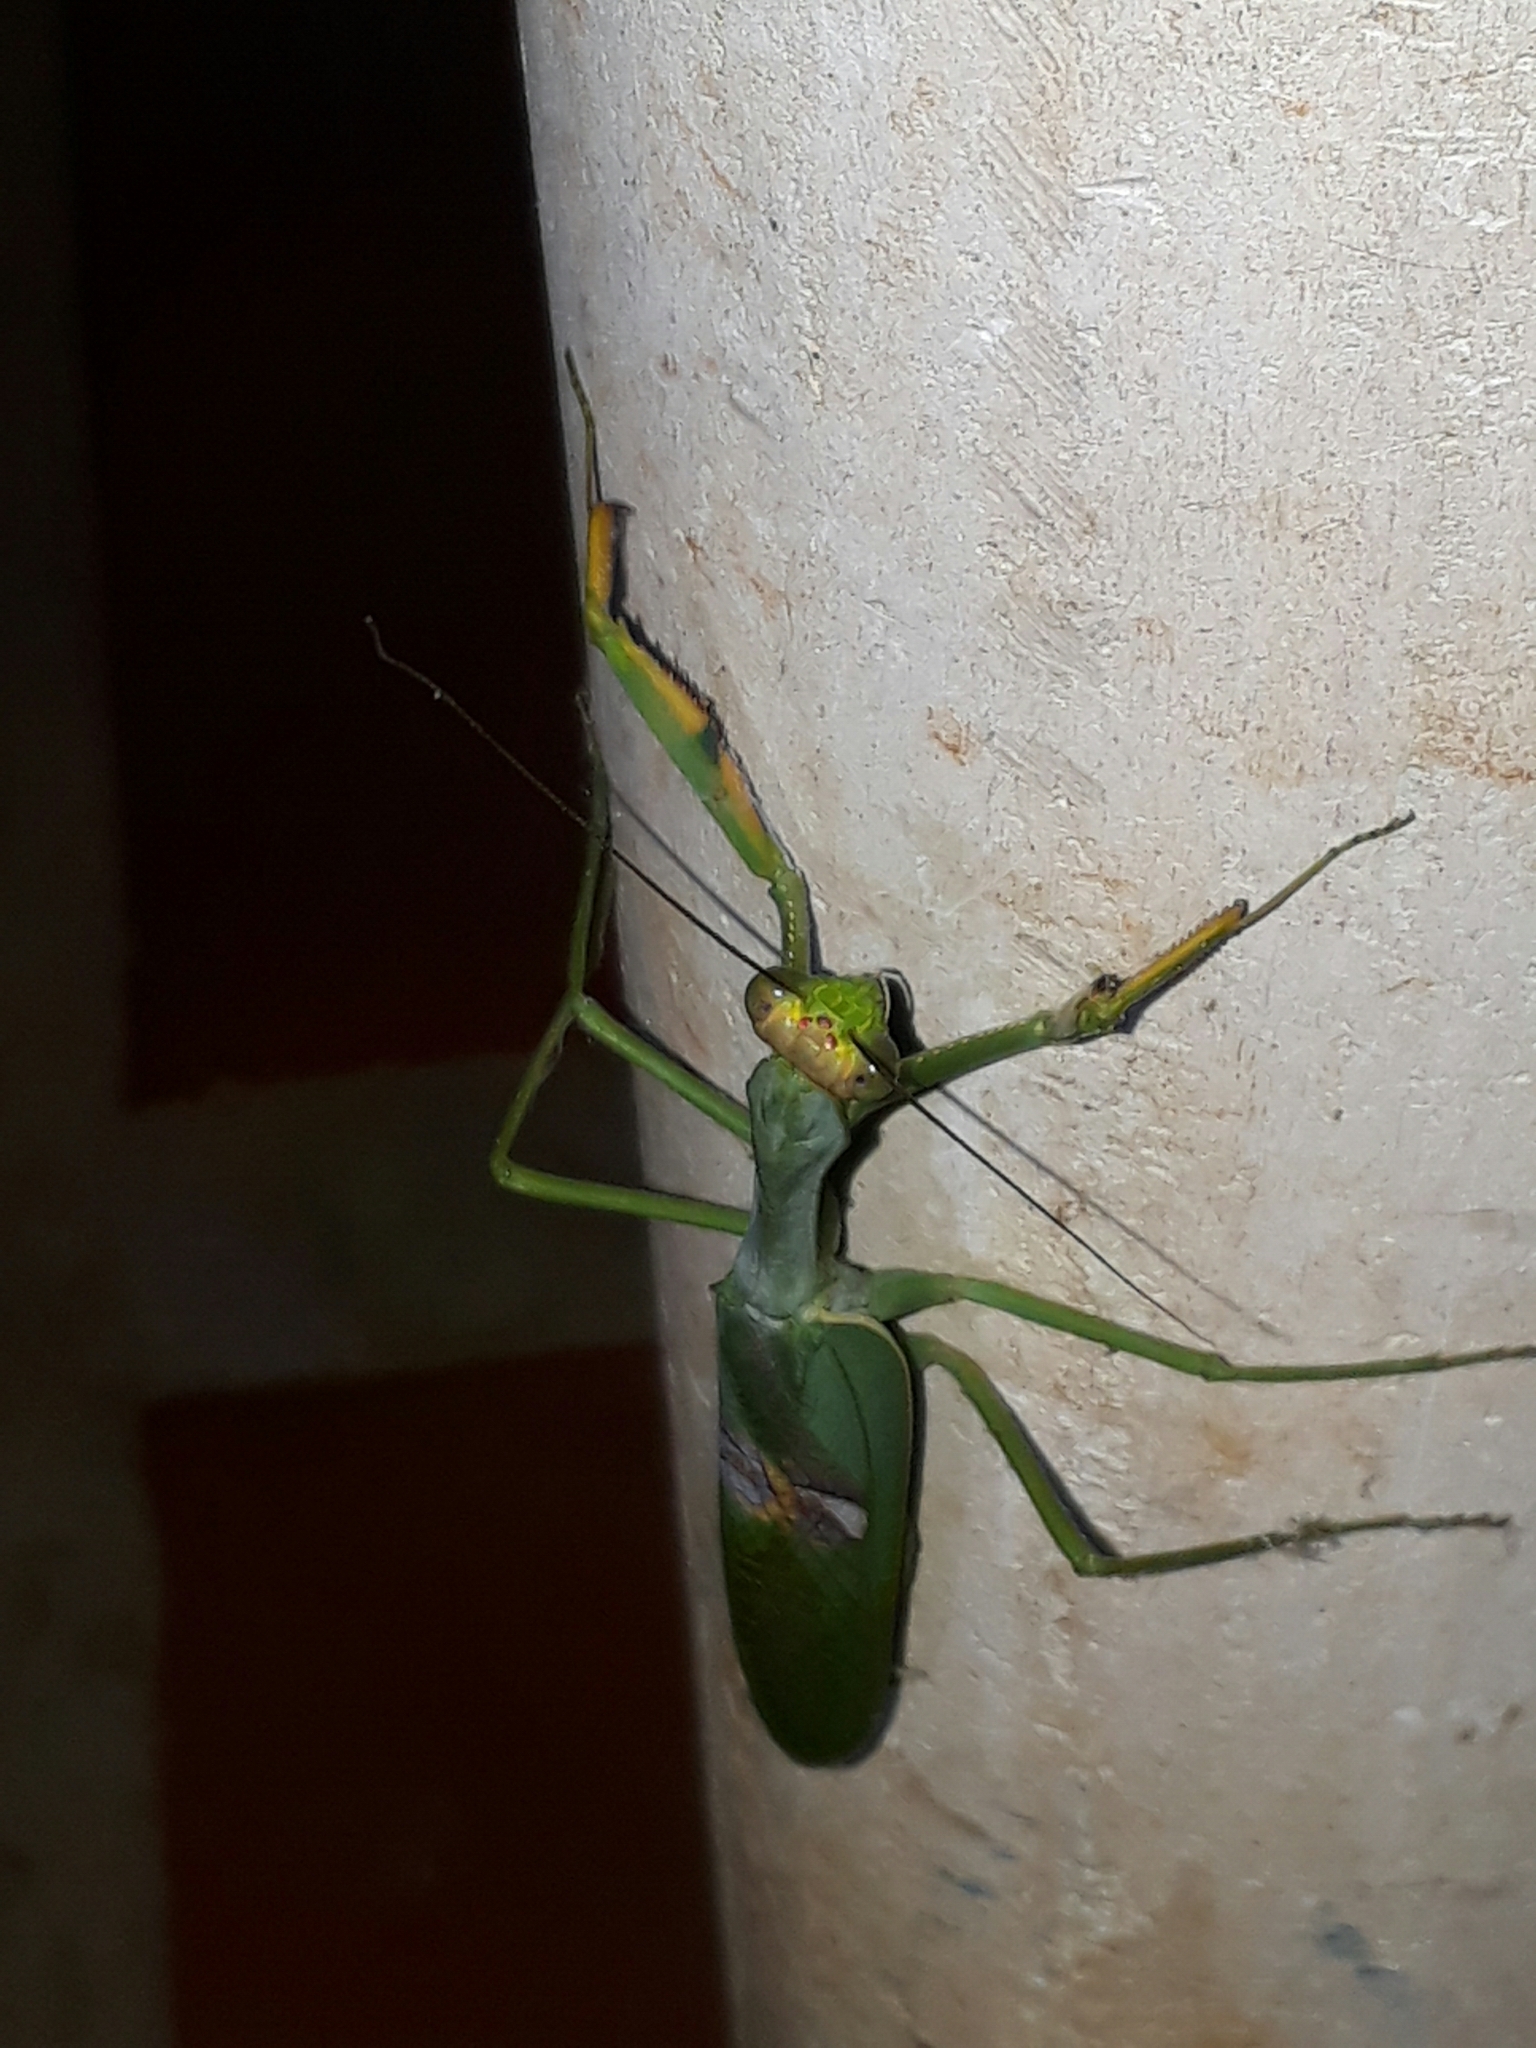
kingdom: Animalia
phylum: Arthropoda
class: Insecta
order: Mantodea
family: Mantidae
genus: Stagmatoptera
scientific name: Stagmatoptera hyaloptera
